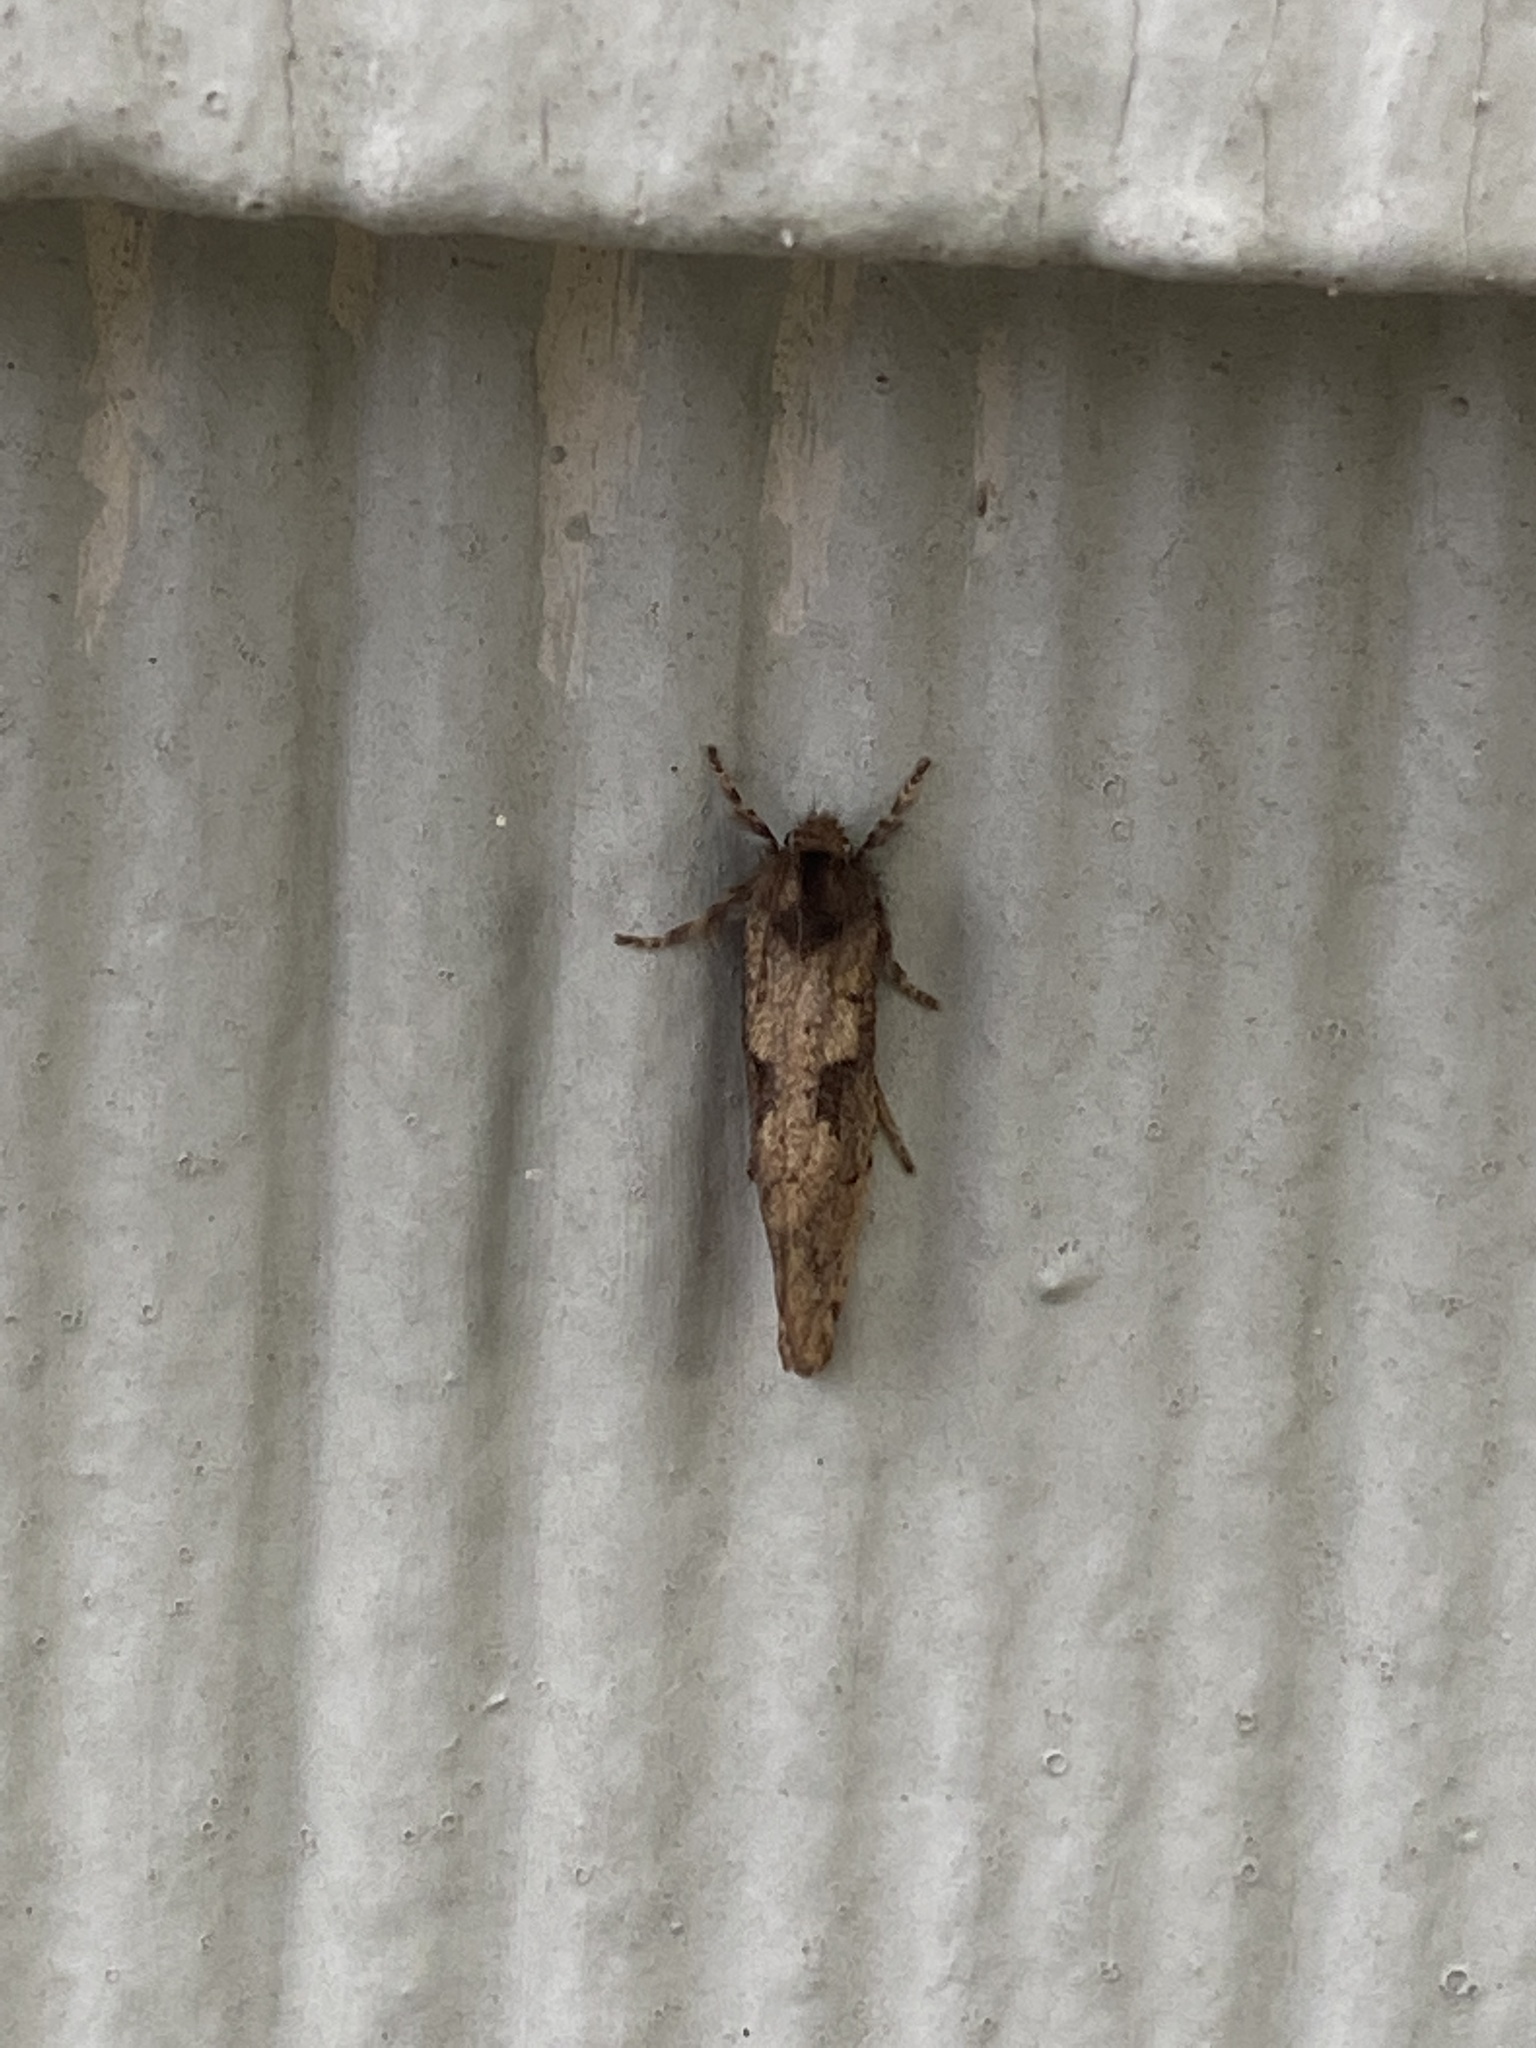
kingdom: Animalia
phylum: Arthropoda
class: Insecta
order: Lepidoptera
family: Tineidae
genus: Acrolophus
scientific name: Acrolophus mora
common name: Dark acrolophus
